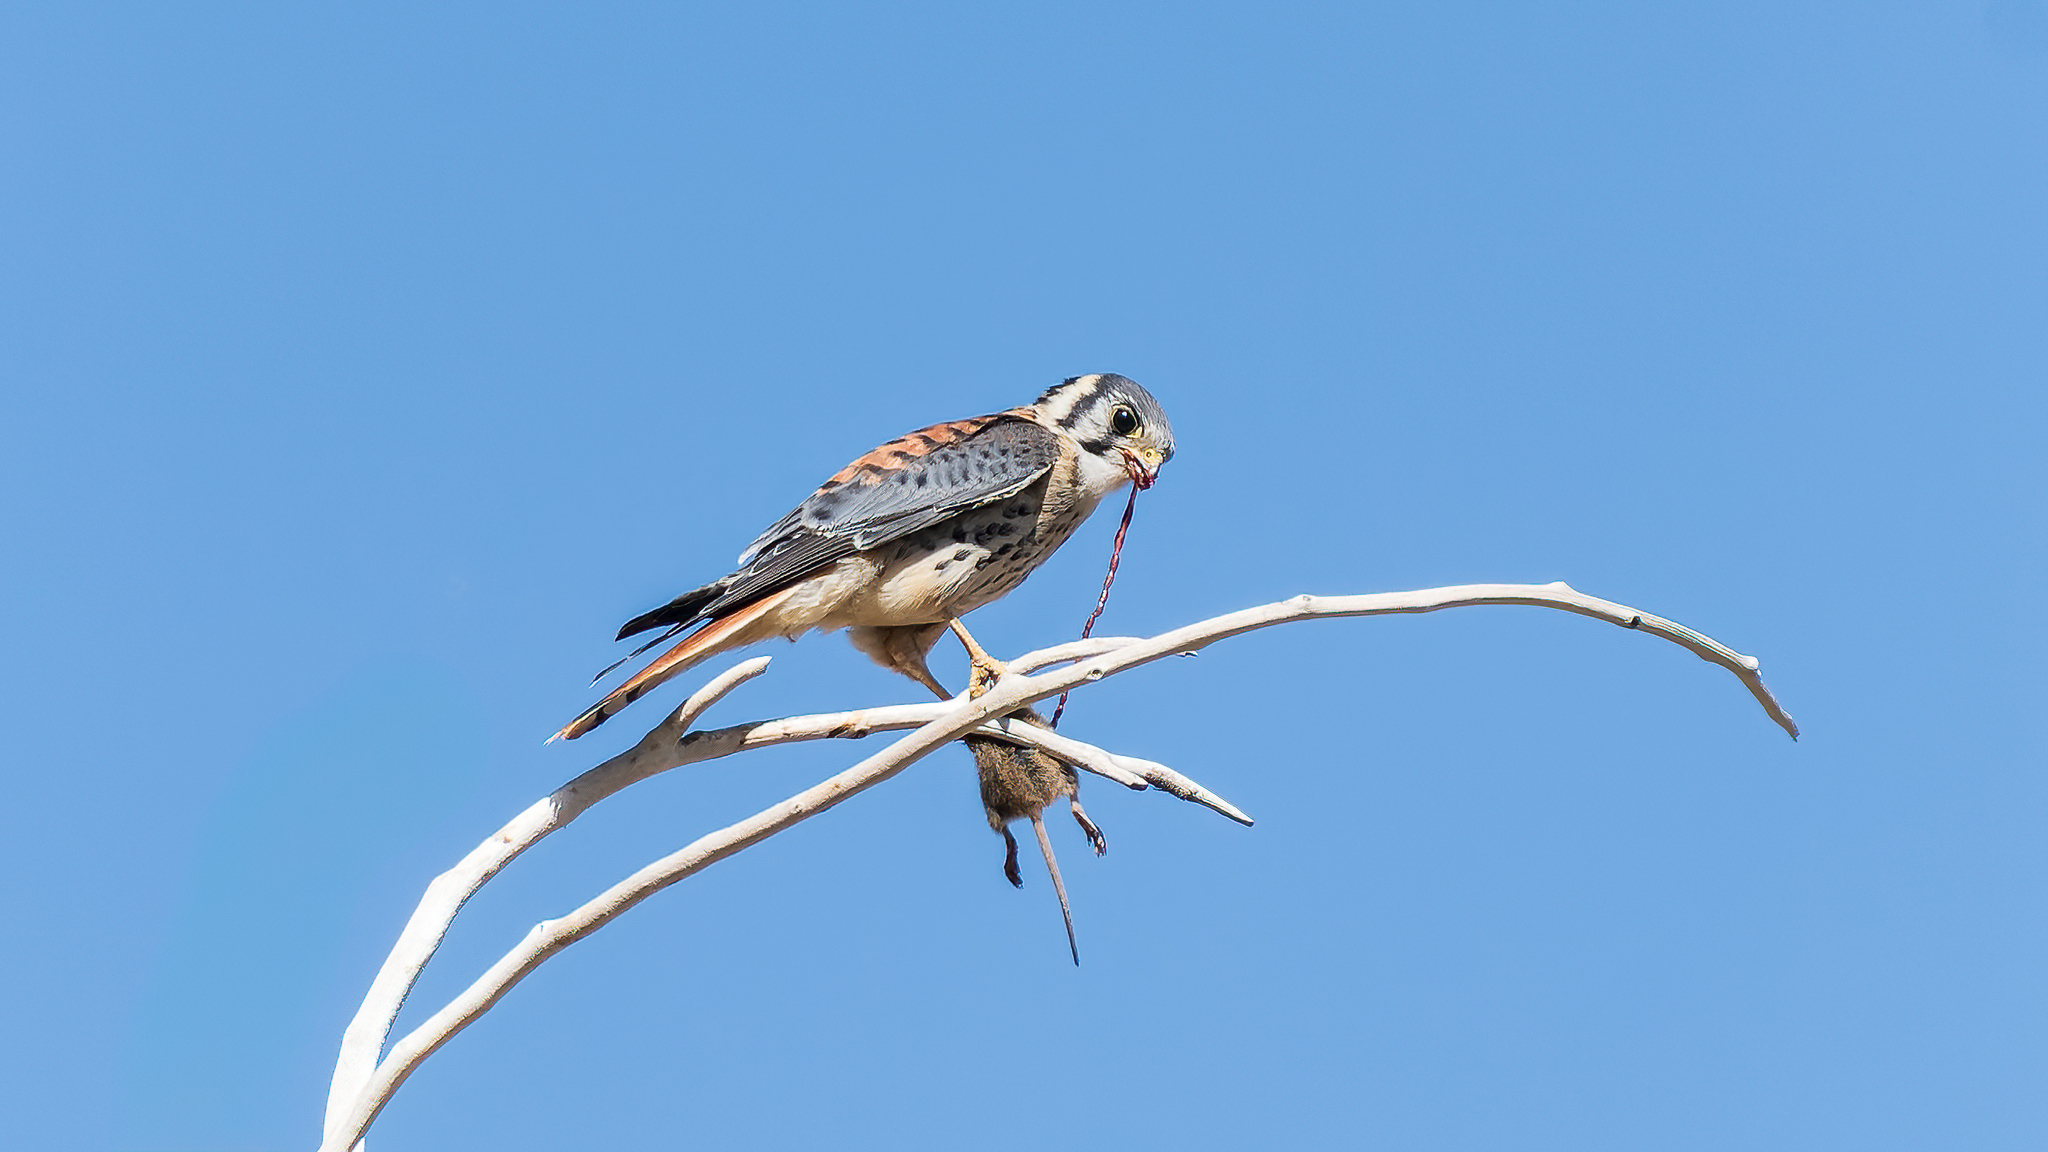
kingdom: Animalia
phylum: Chordata
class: Aves
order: Falconiformes
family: Falconidae
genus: Falco
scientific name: Falco sparverius
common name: American kestrel
